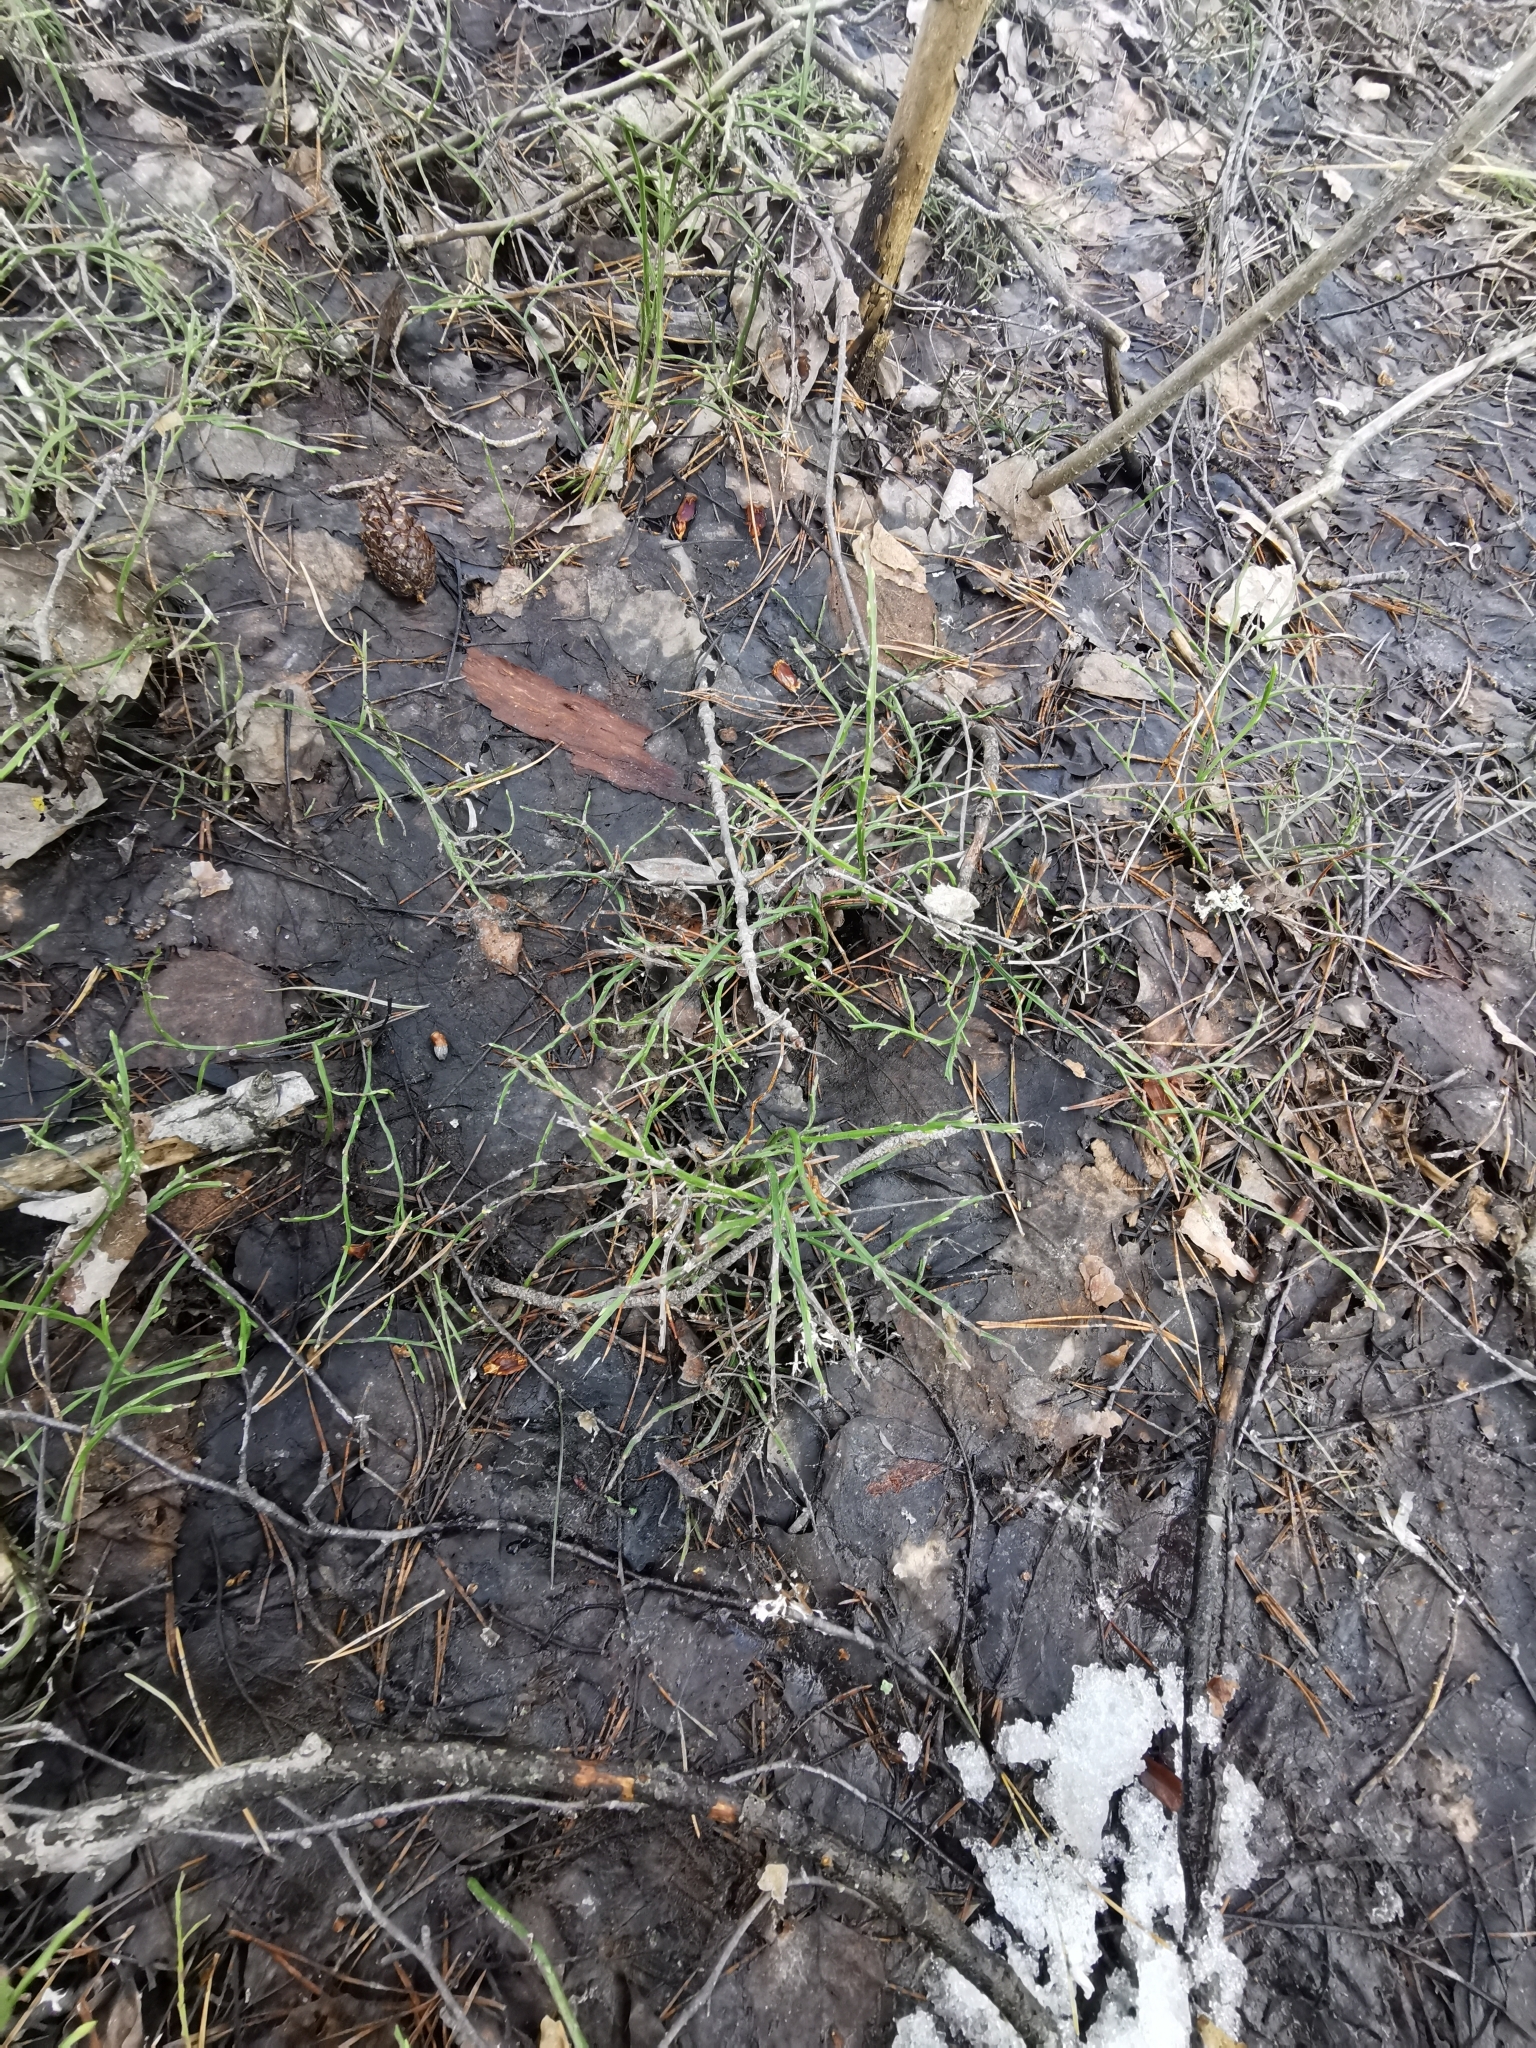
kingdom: Plantae
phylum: Tracheophyta
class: Magnoliopsida
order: Ericales
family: Ericaceae
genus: Vaccinium
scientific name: Vaccinium myrtillus
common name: Bilberry
